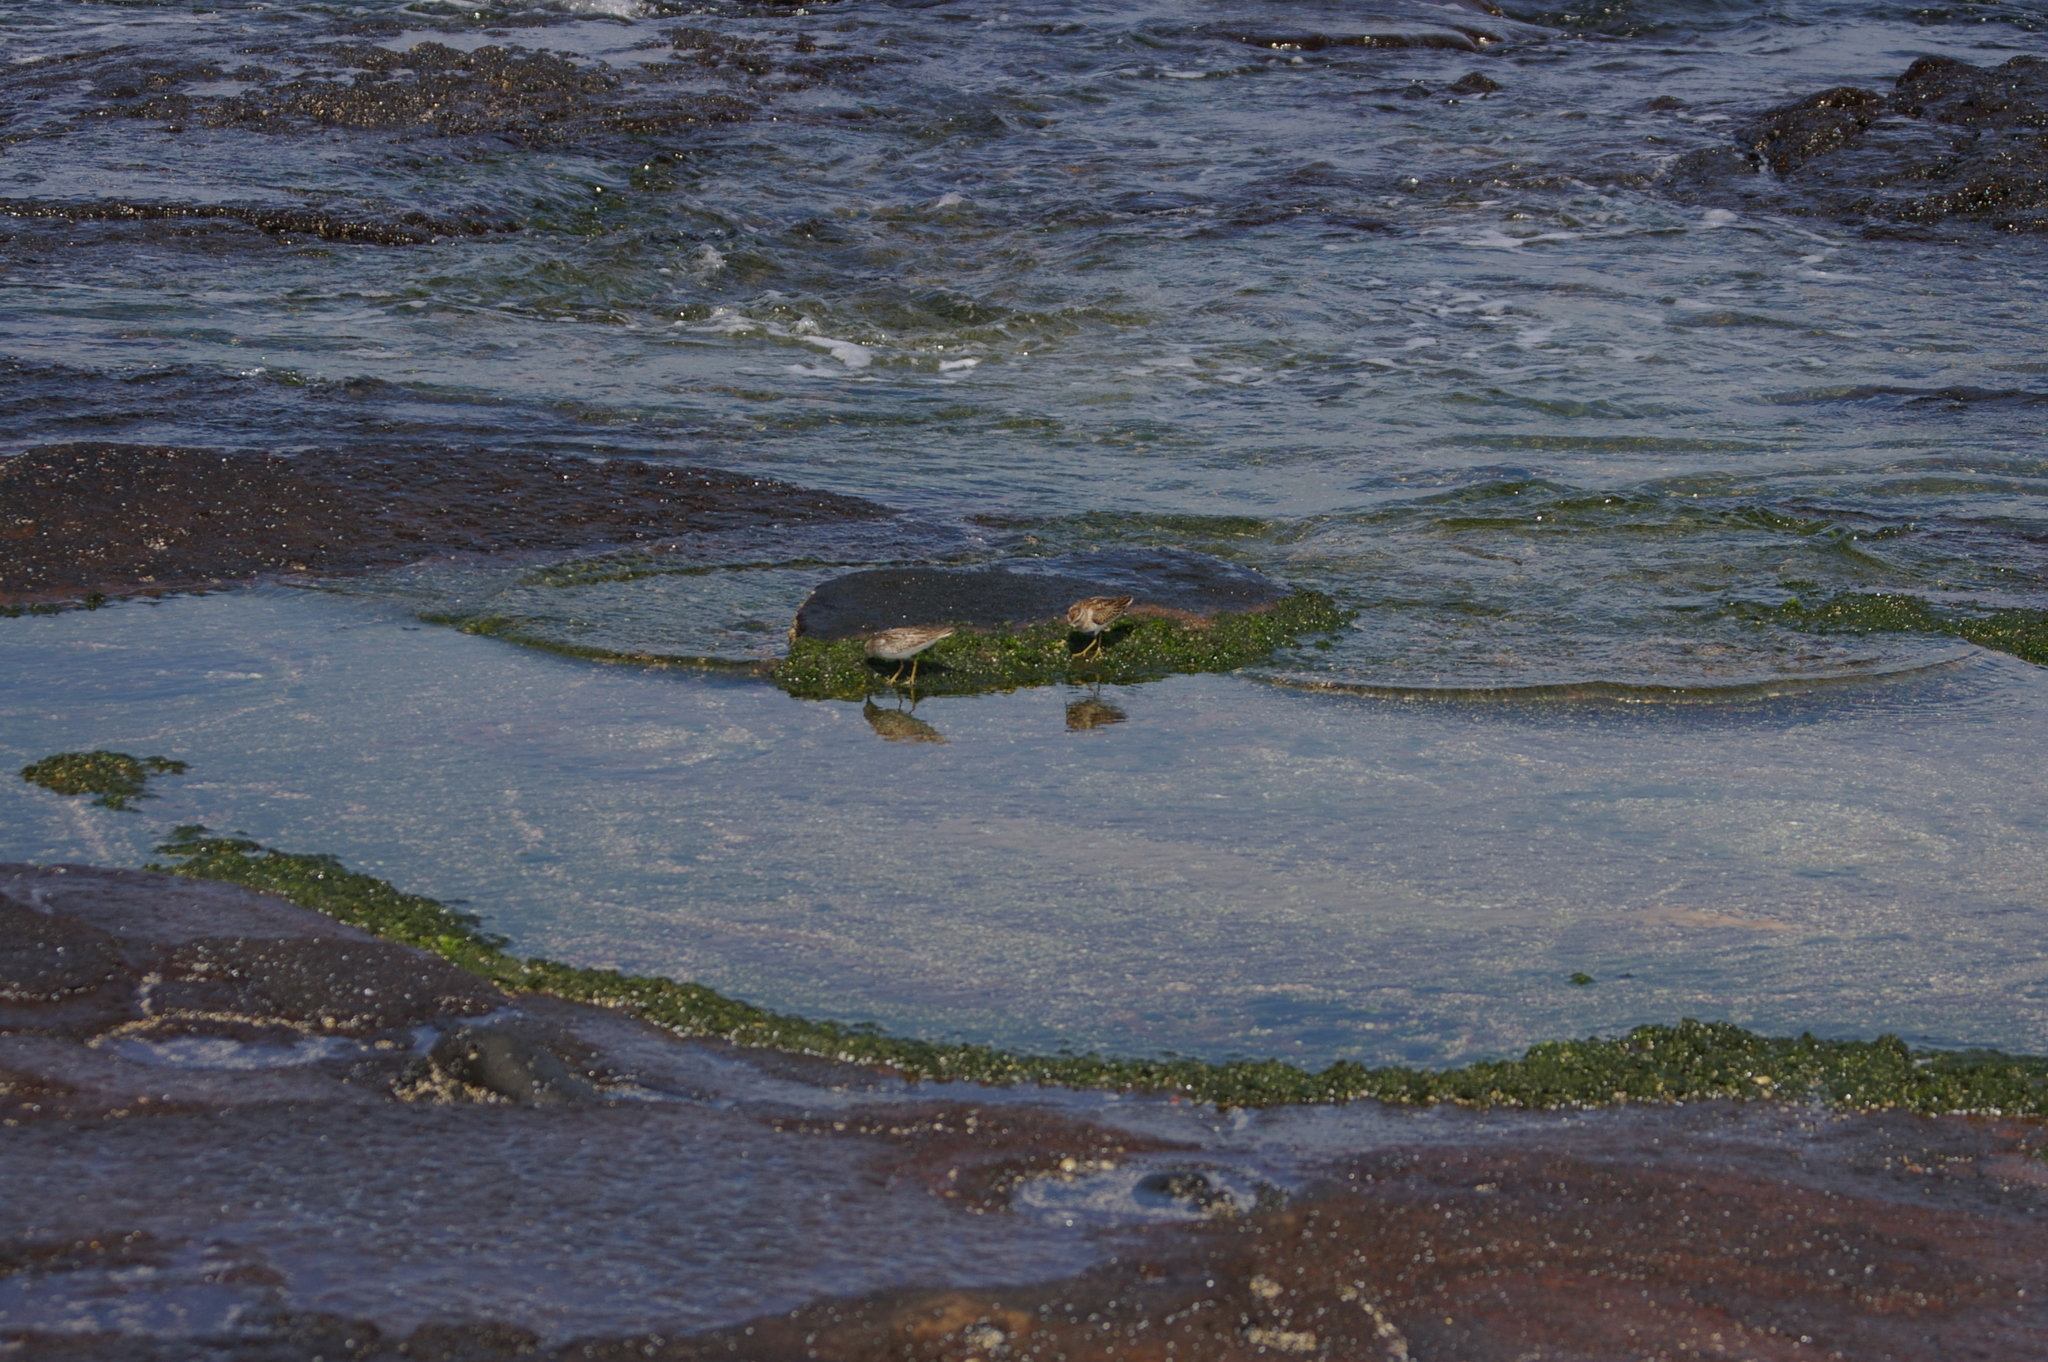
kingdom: Animalia
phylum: Chordata
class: Aves
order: Charadriiformes
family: Scolopacidae
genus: Arenaria
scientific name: Arenaria interpres
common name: Ruddy turnstone
